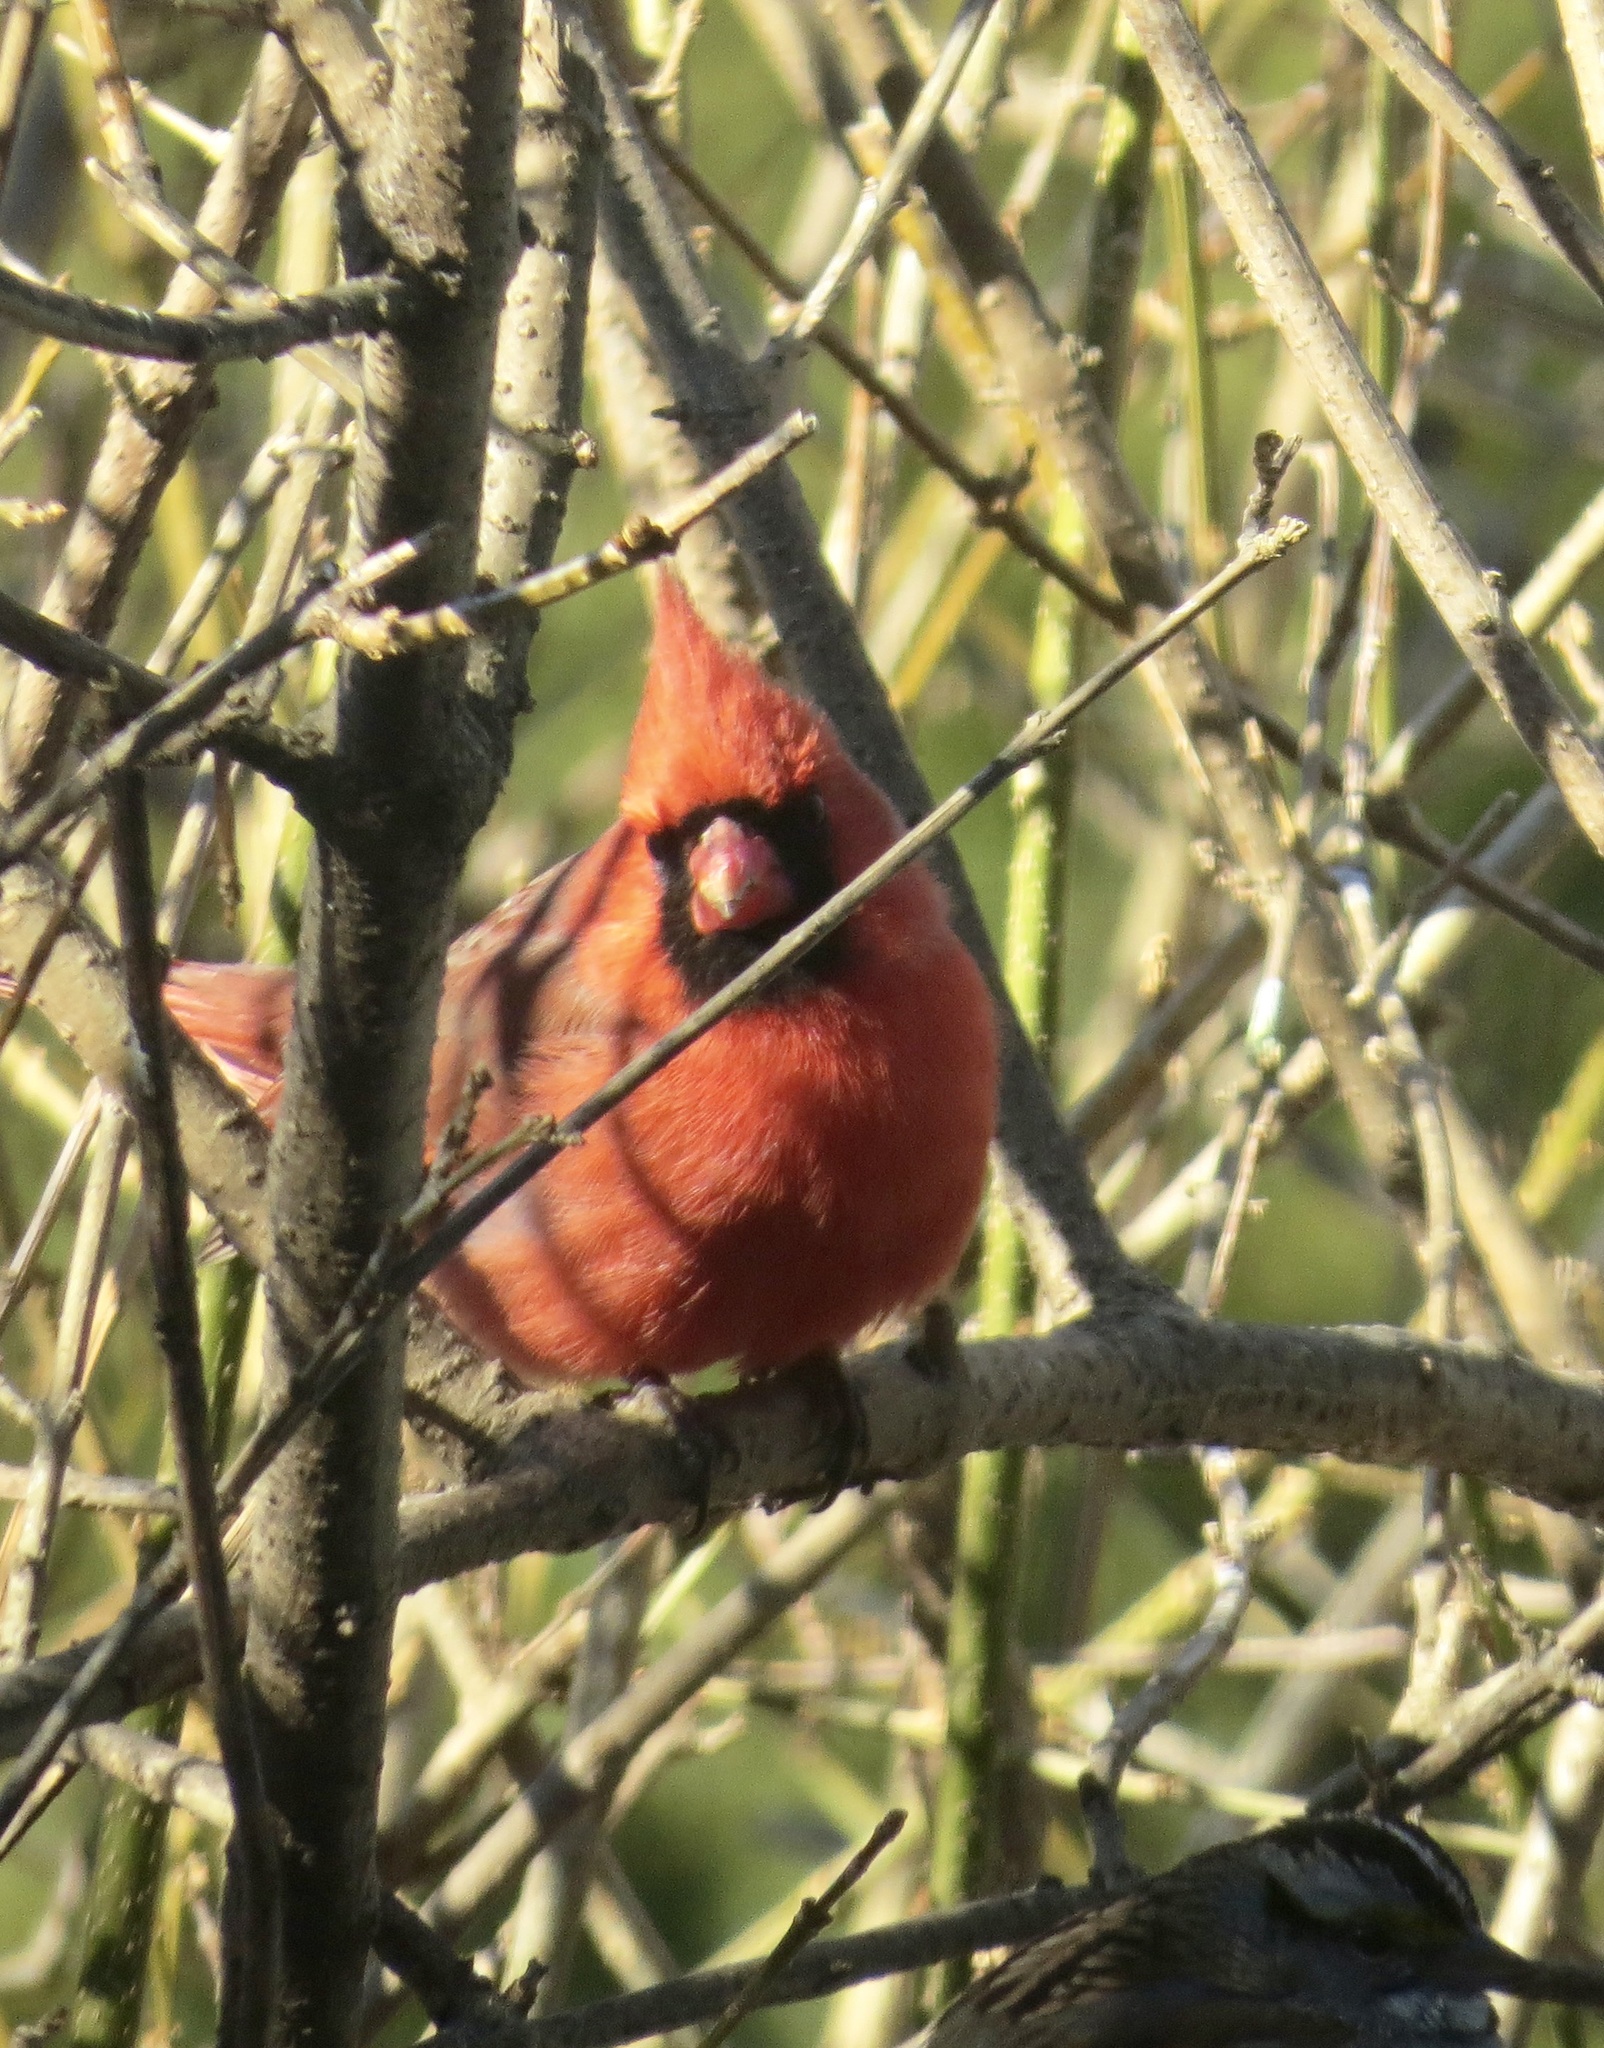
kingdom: Animalia
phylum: Chordata
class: Aves
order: Passeriformes
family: Cardinalidae
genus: Cardinalis
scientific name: Cardinalis cardinalis
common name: Northern cardinal
